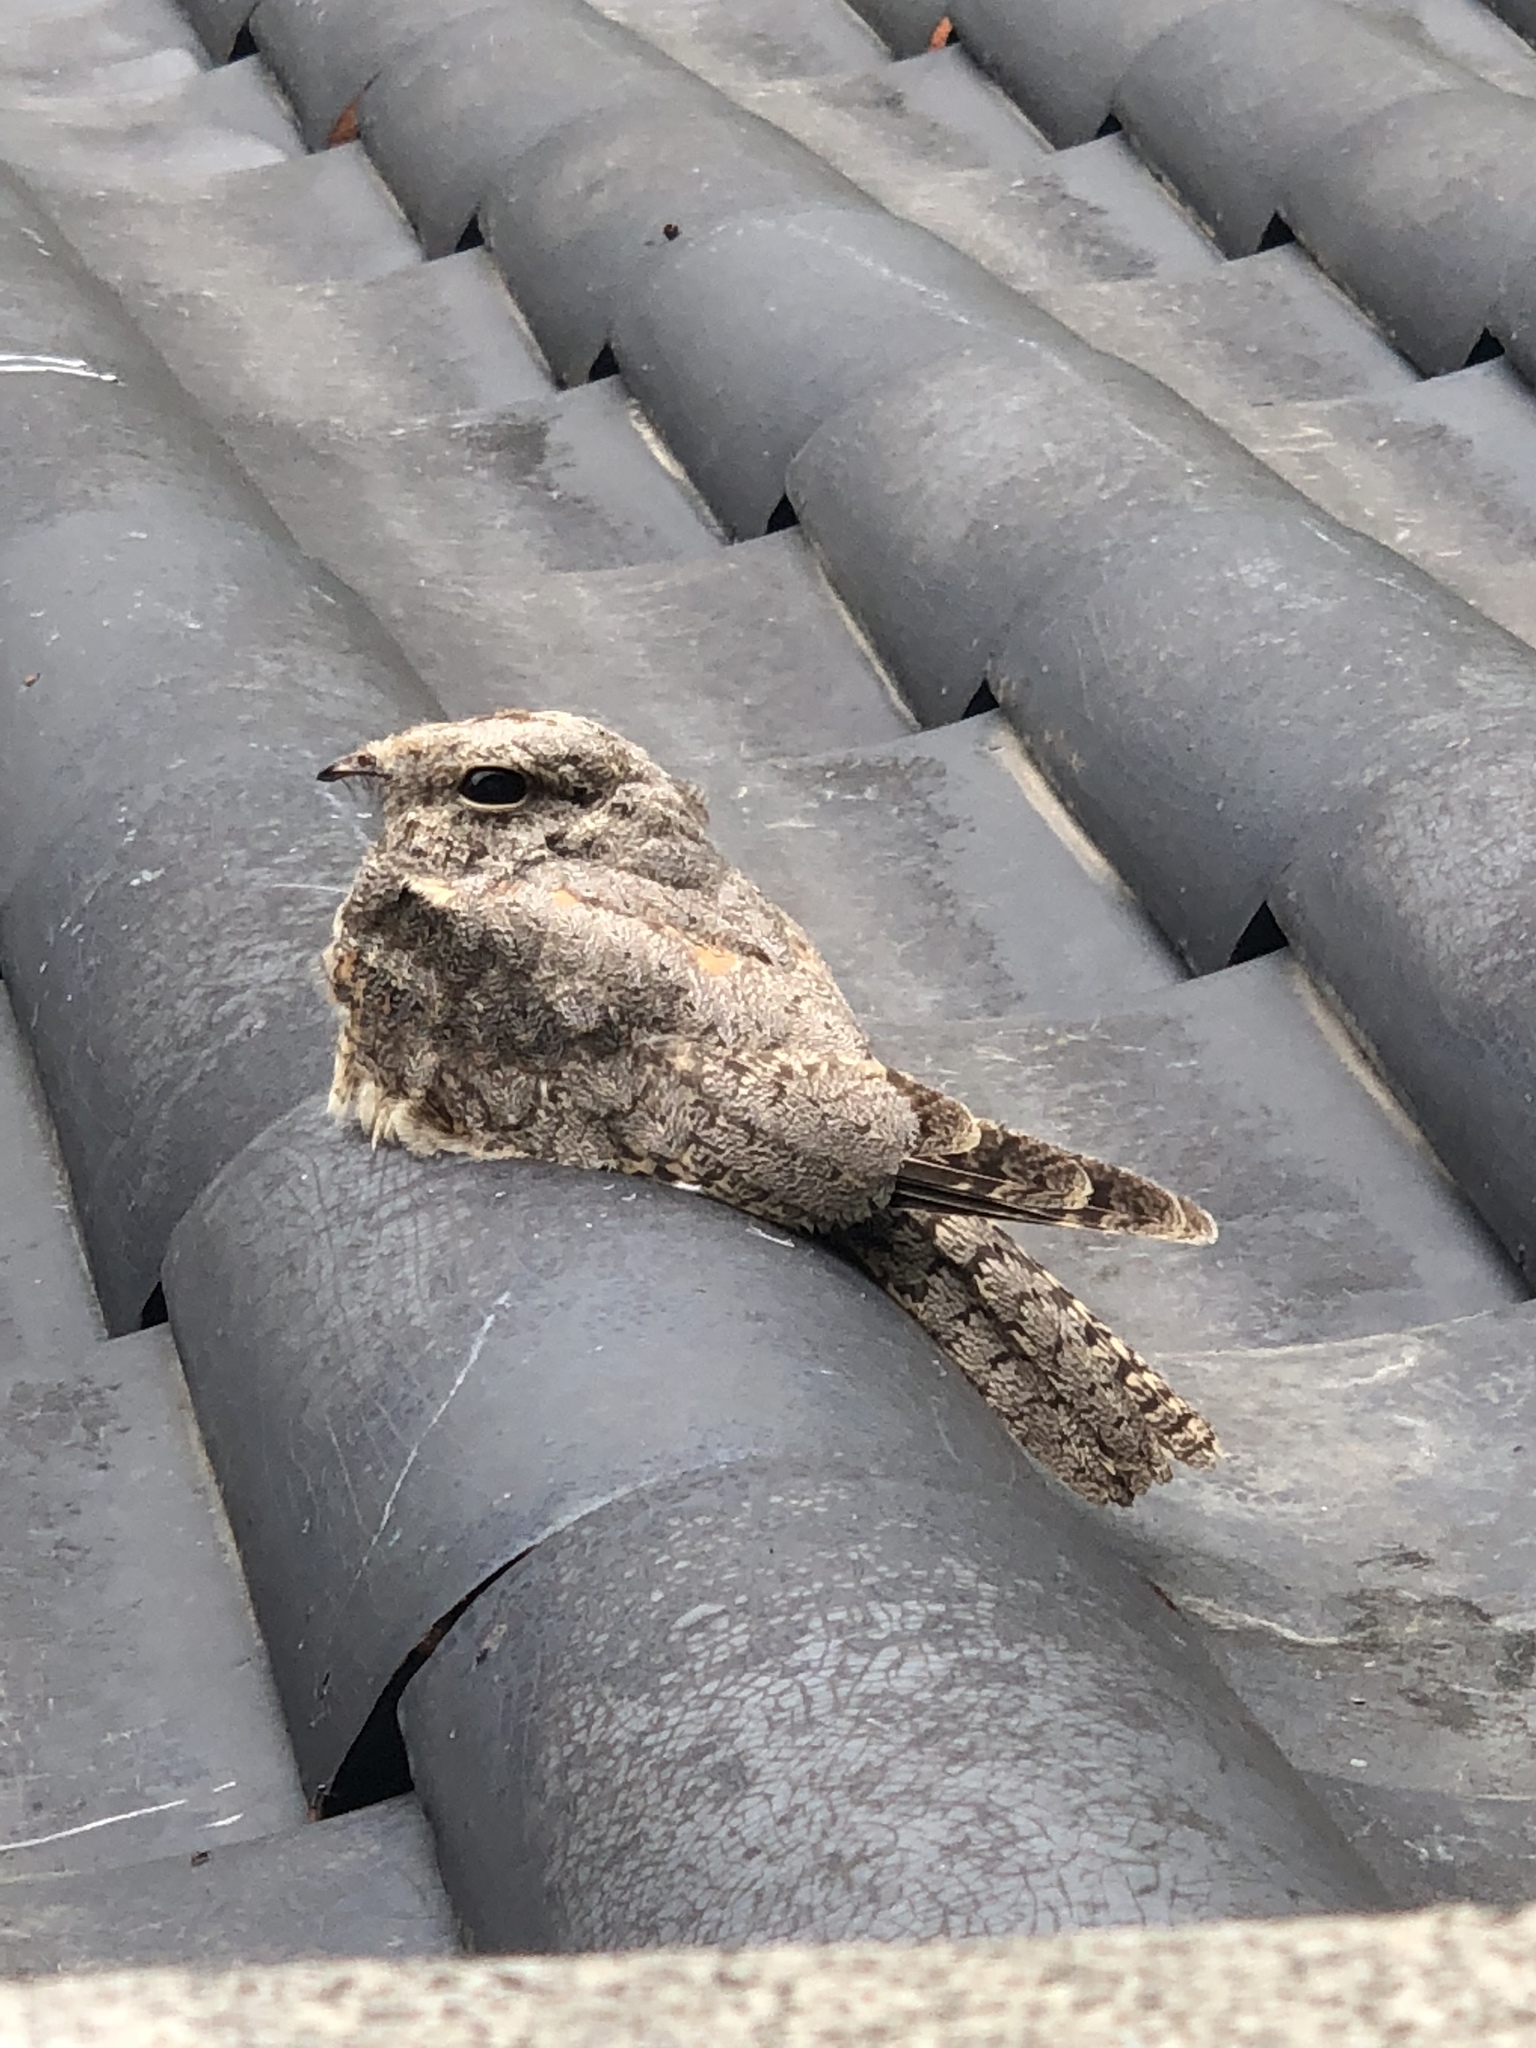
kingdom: Animalia
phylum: Chordata
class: Aves
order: Caprimulgiformes
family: Caprimulgidae
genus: Caprimulgus
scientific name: Caprimulgus affinis
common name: Savanna nightjar
